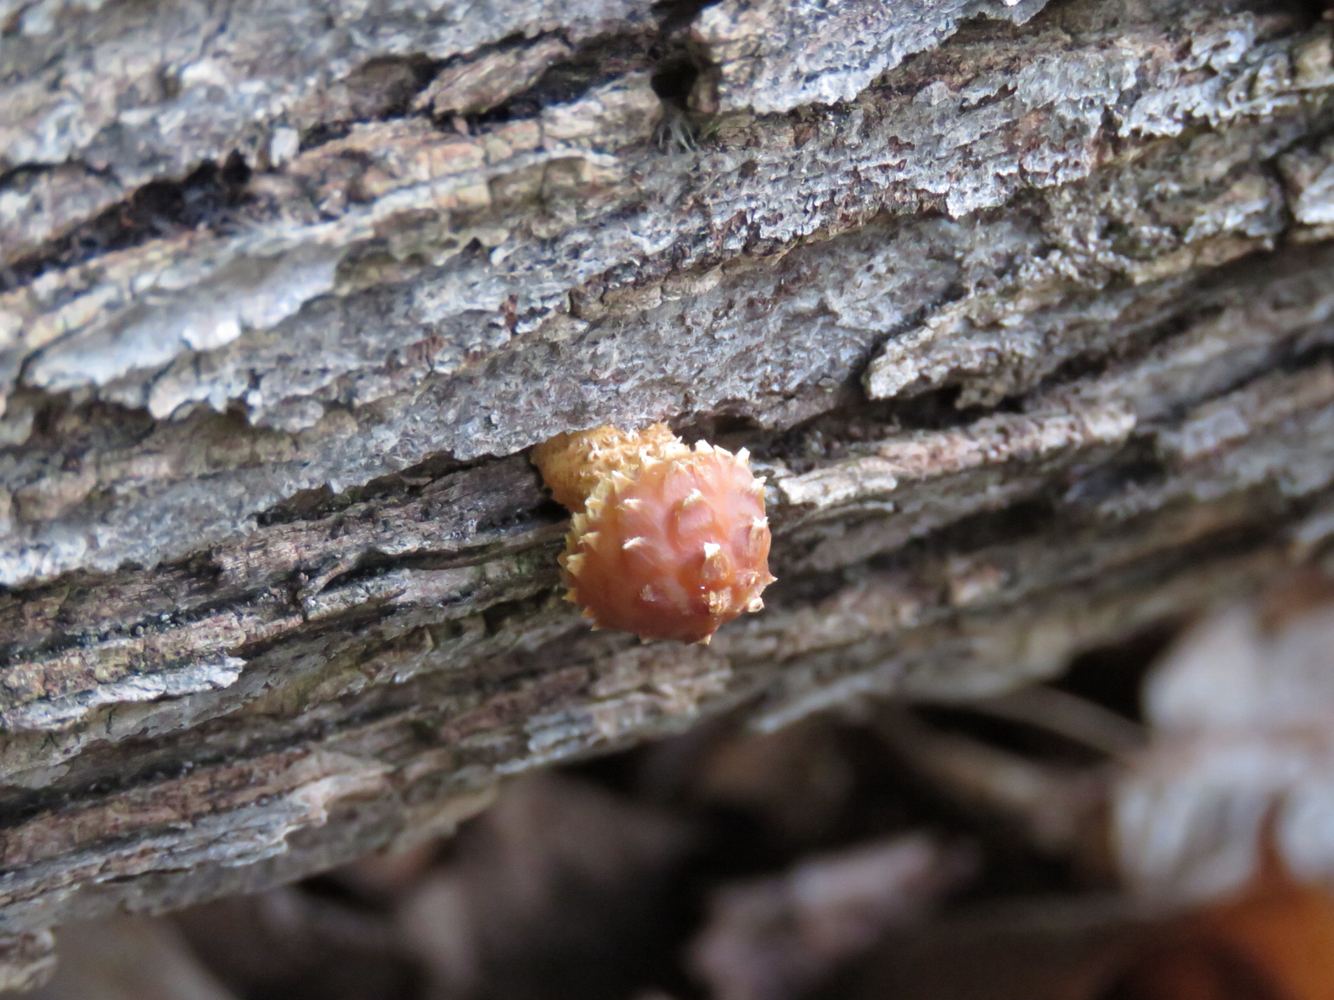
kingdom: Fungi
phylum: Basidiomycota
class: Agaricomycetes
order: Agaricales
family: Tubariaceae
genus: Hemistropharia
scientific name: Hemistropharia albocrenulata
